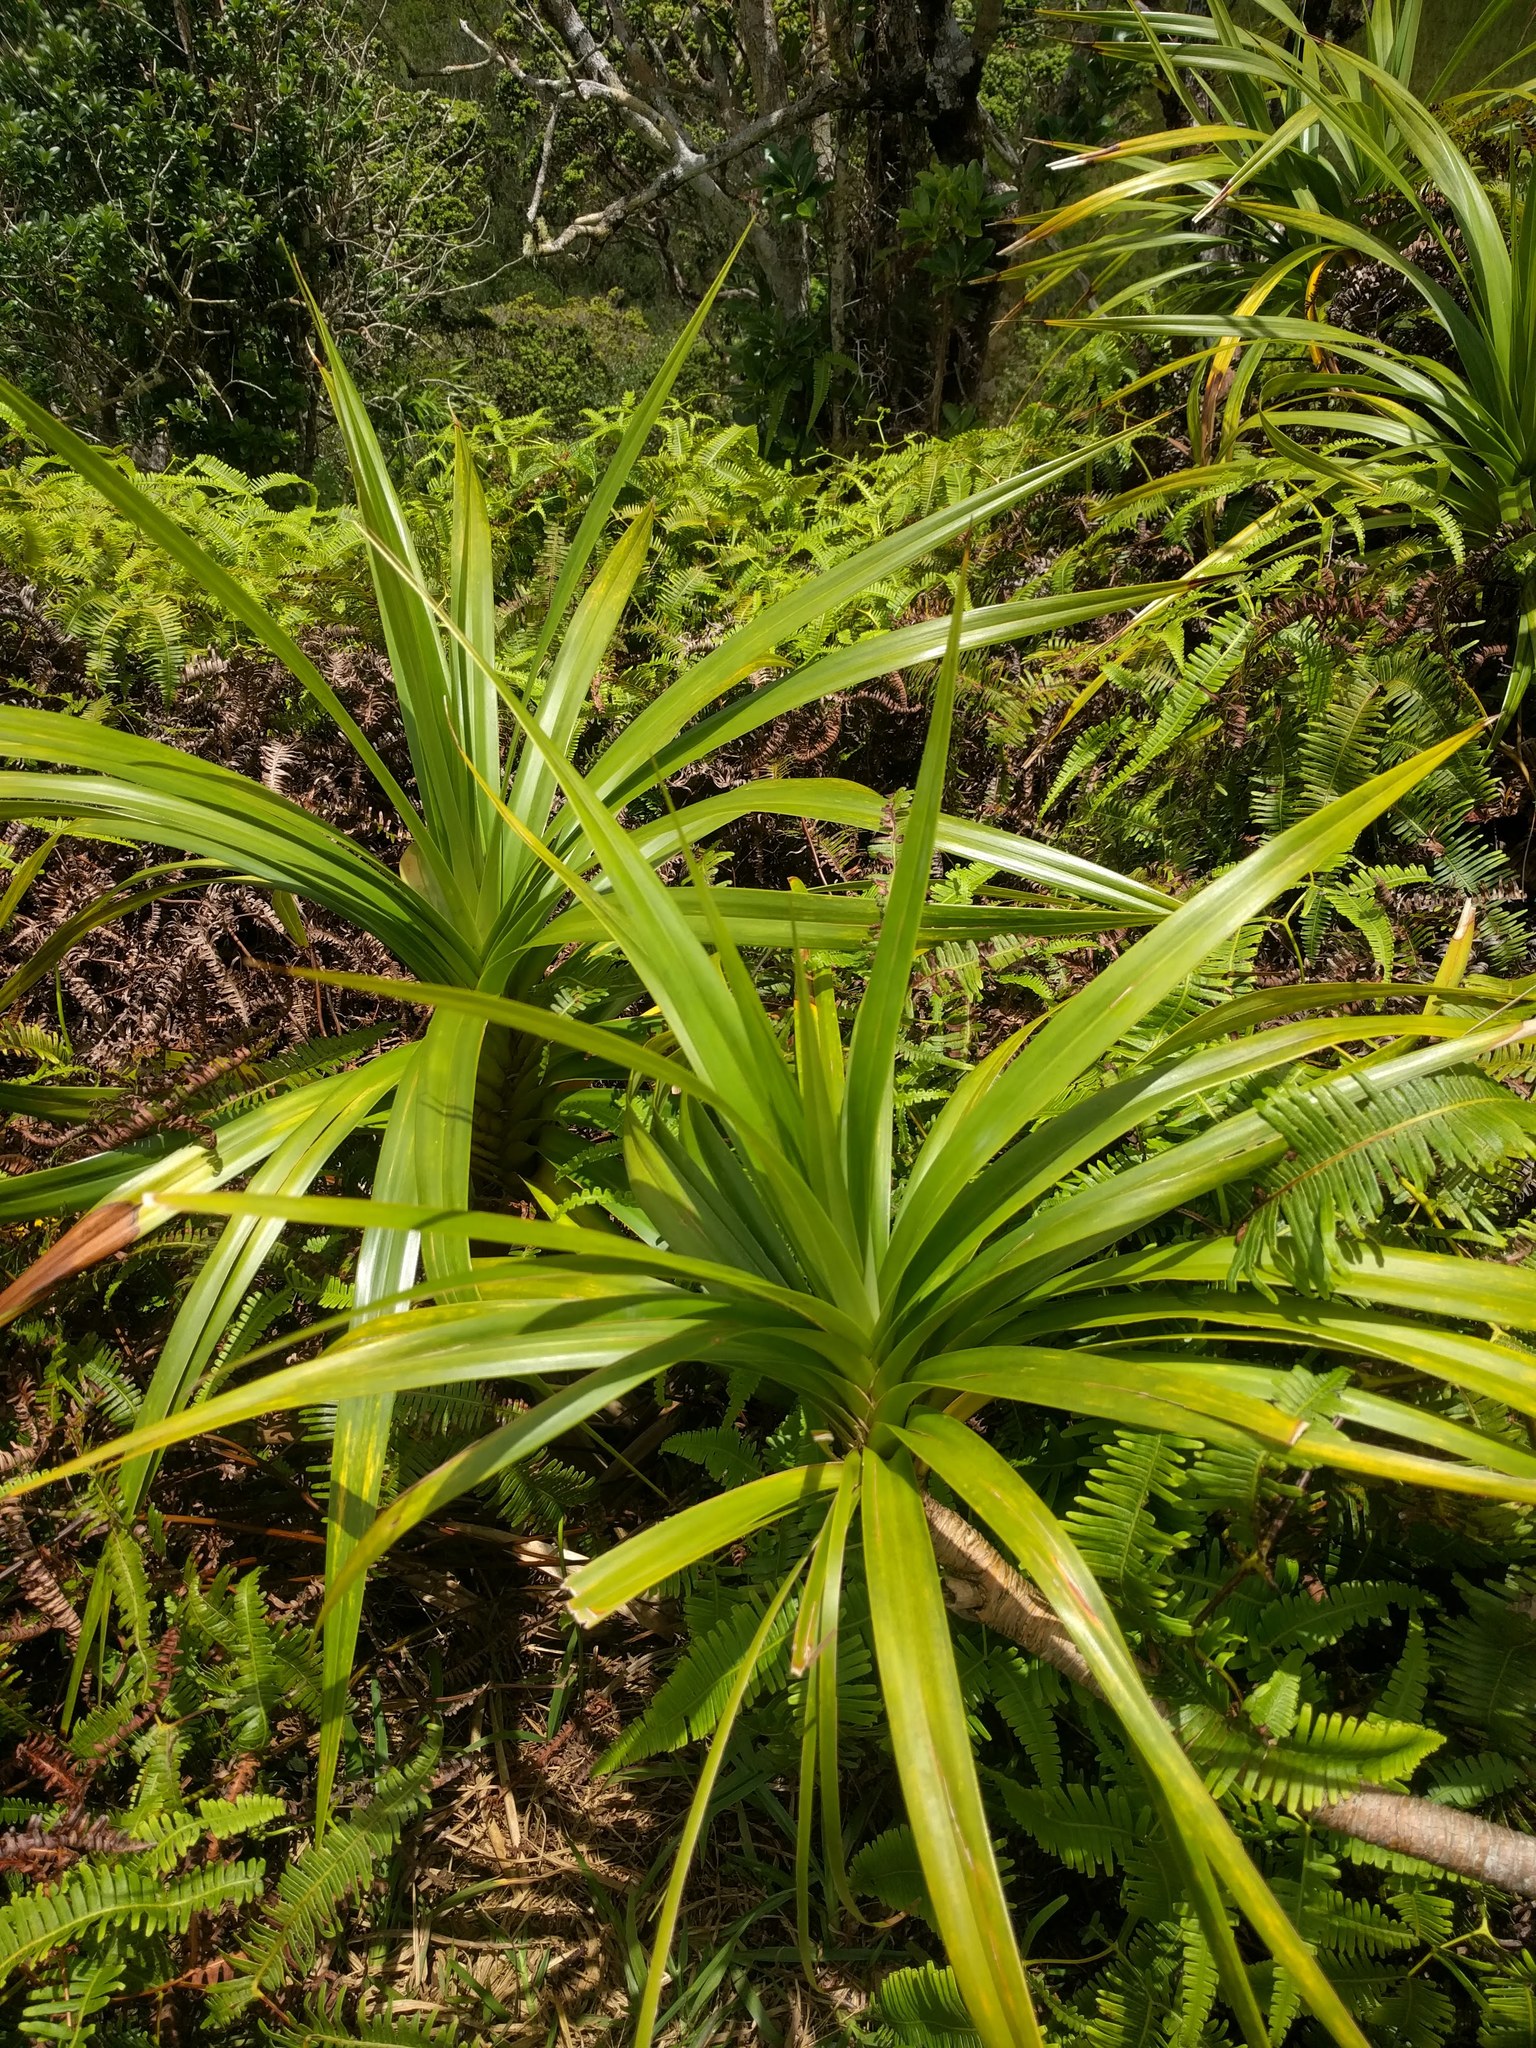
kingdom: Plantae
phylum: Tracheophyta
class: Liliopsida
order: Pandanales
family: Pandanaceae
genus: Freycinetia
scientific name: Freycinetia arborea
